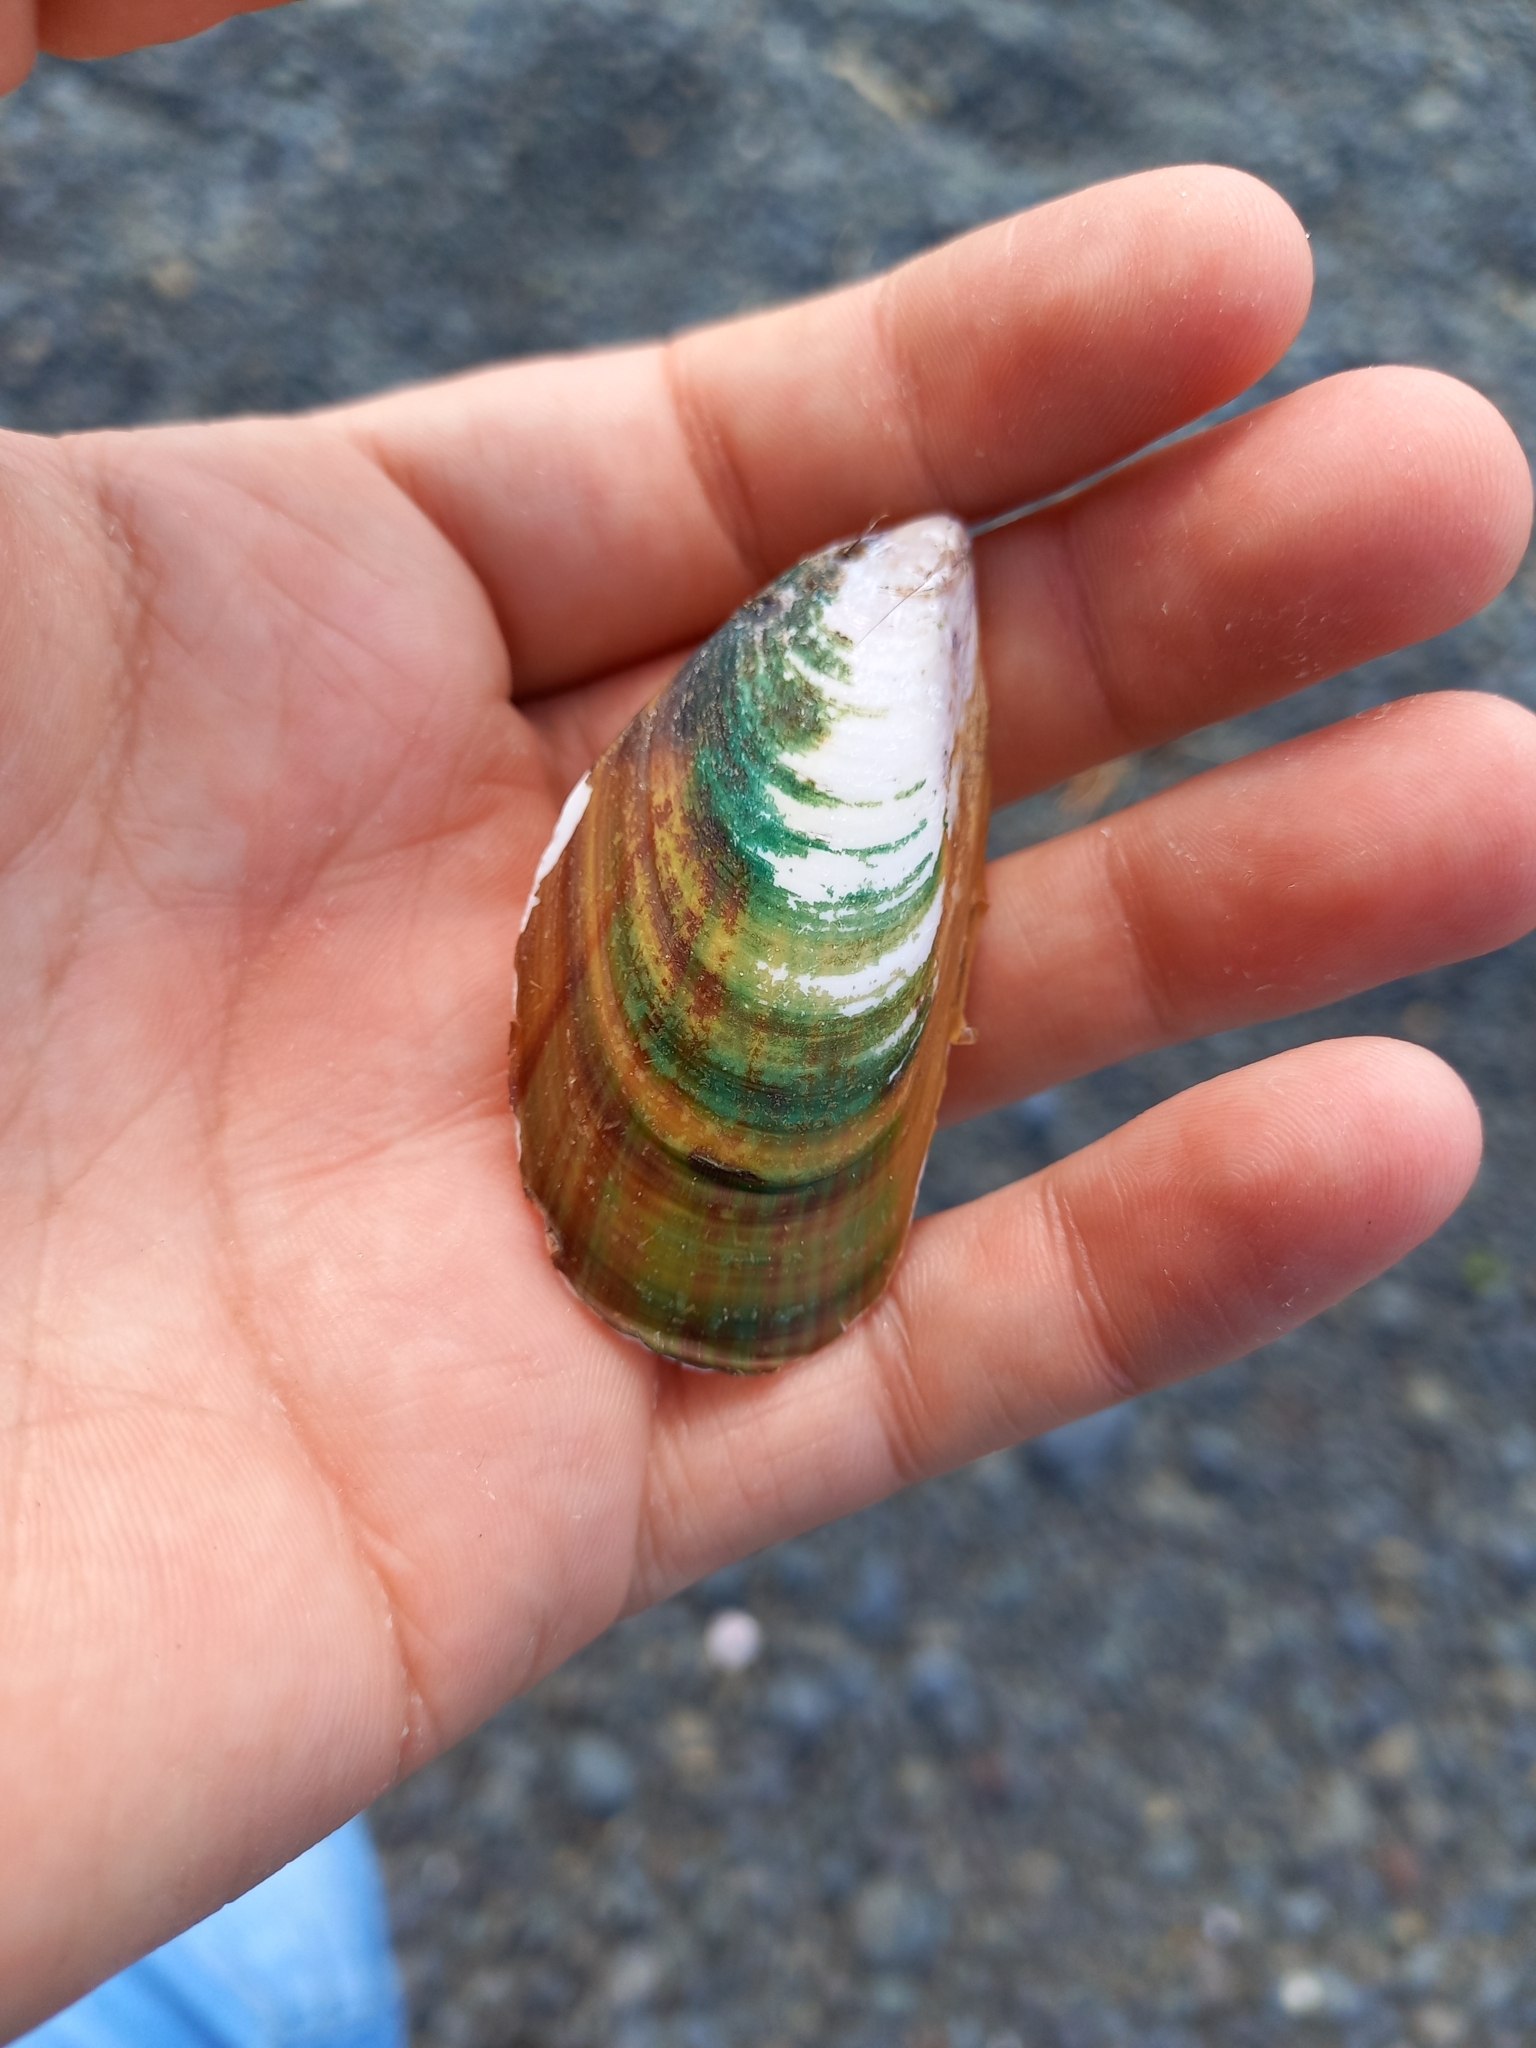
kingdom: Animalia
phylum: Mollusca
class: Bivalvia
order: Mytilida
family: Mytilidae
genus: Perna
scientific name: Perna canaliculus
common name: New zealand greenshelltm
